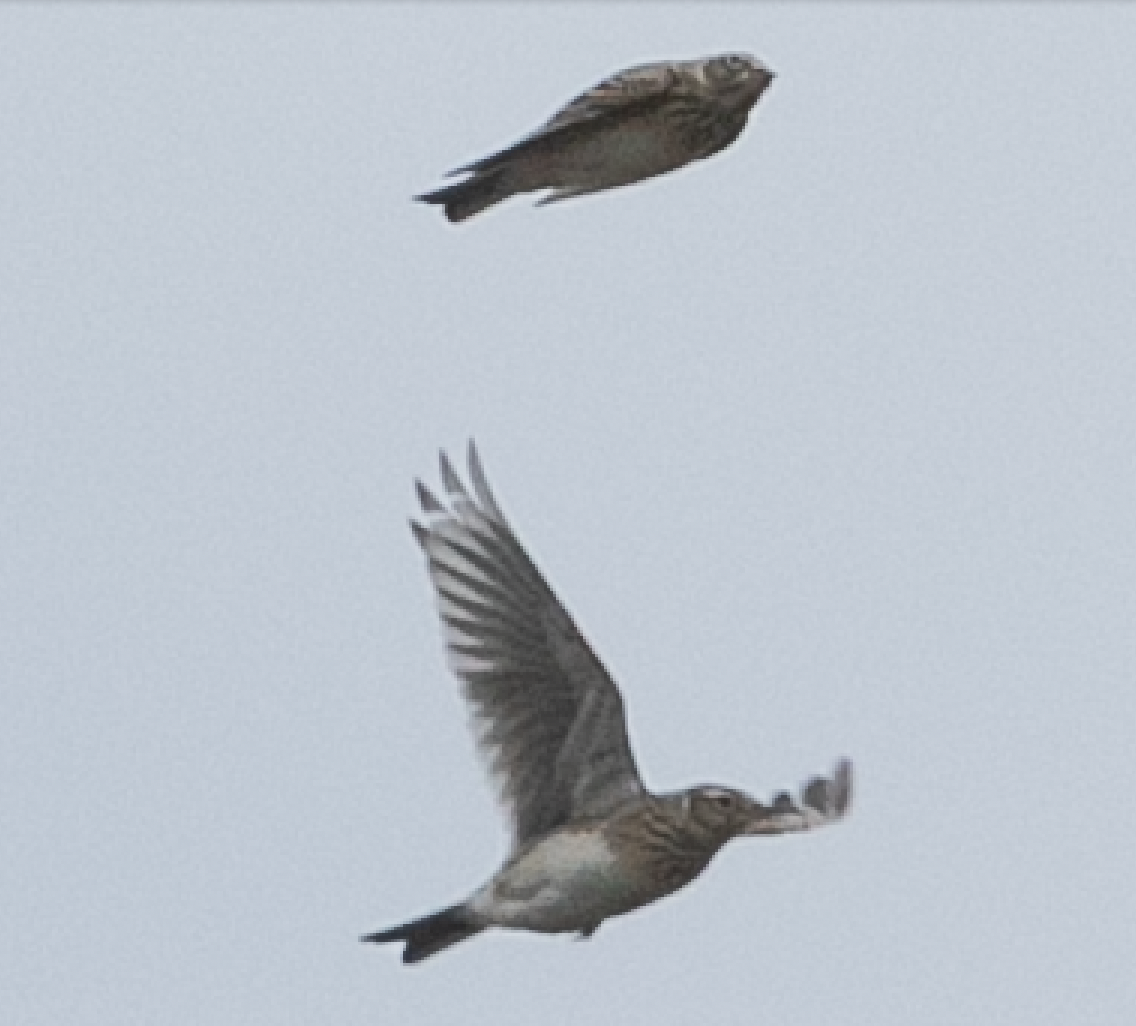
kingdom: Animalia
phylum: Chordata
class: Aves
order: Passeriformes
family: Alaudidae
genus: Alauda
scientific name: Alauda arvensis
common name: Eurasian skylark
